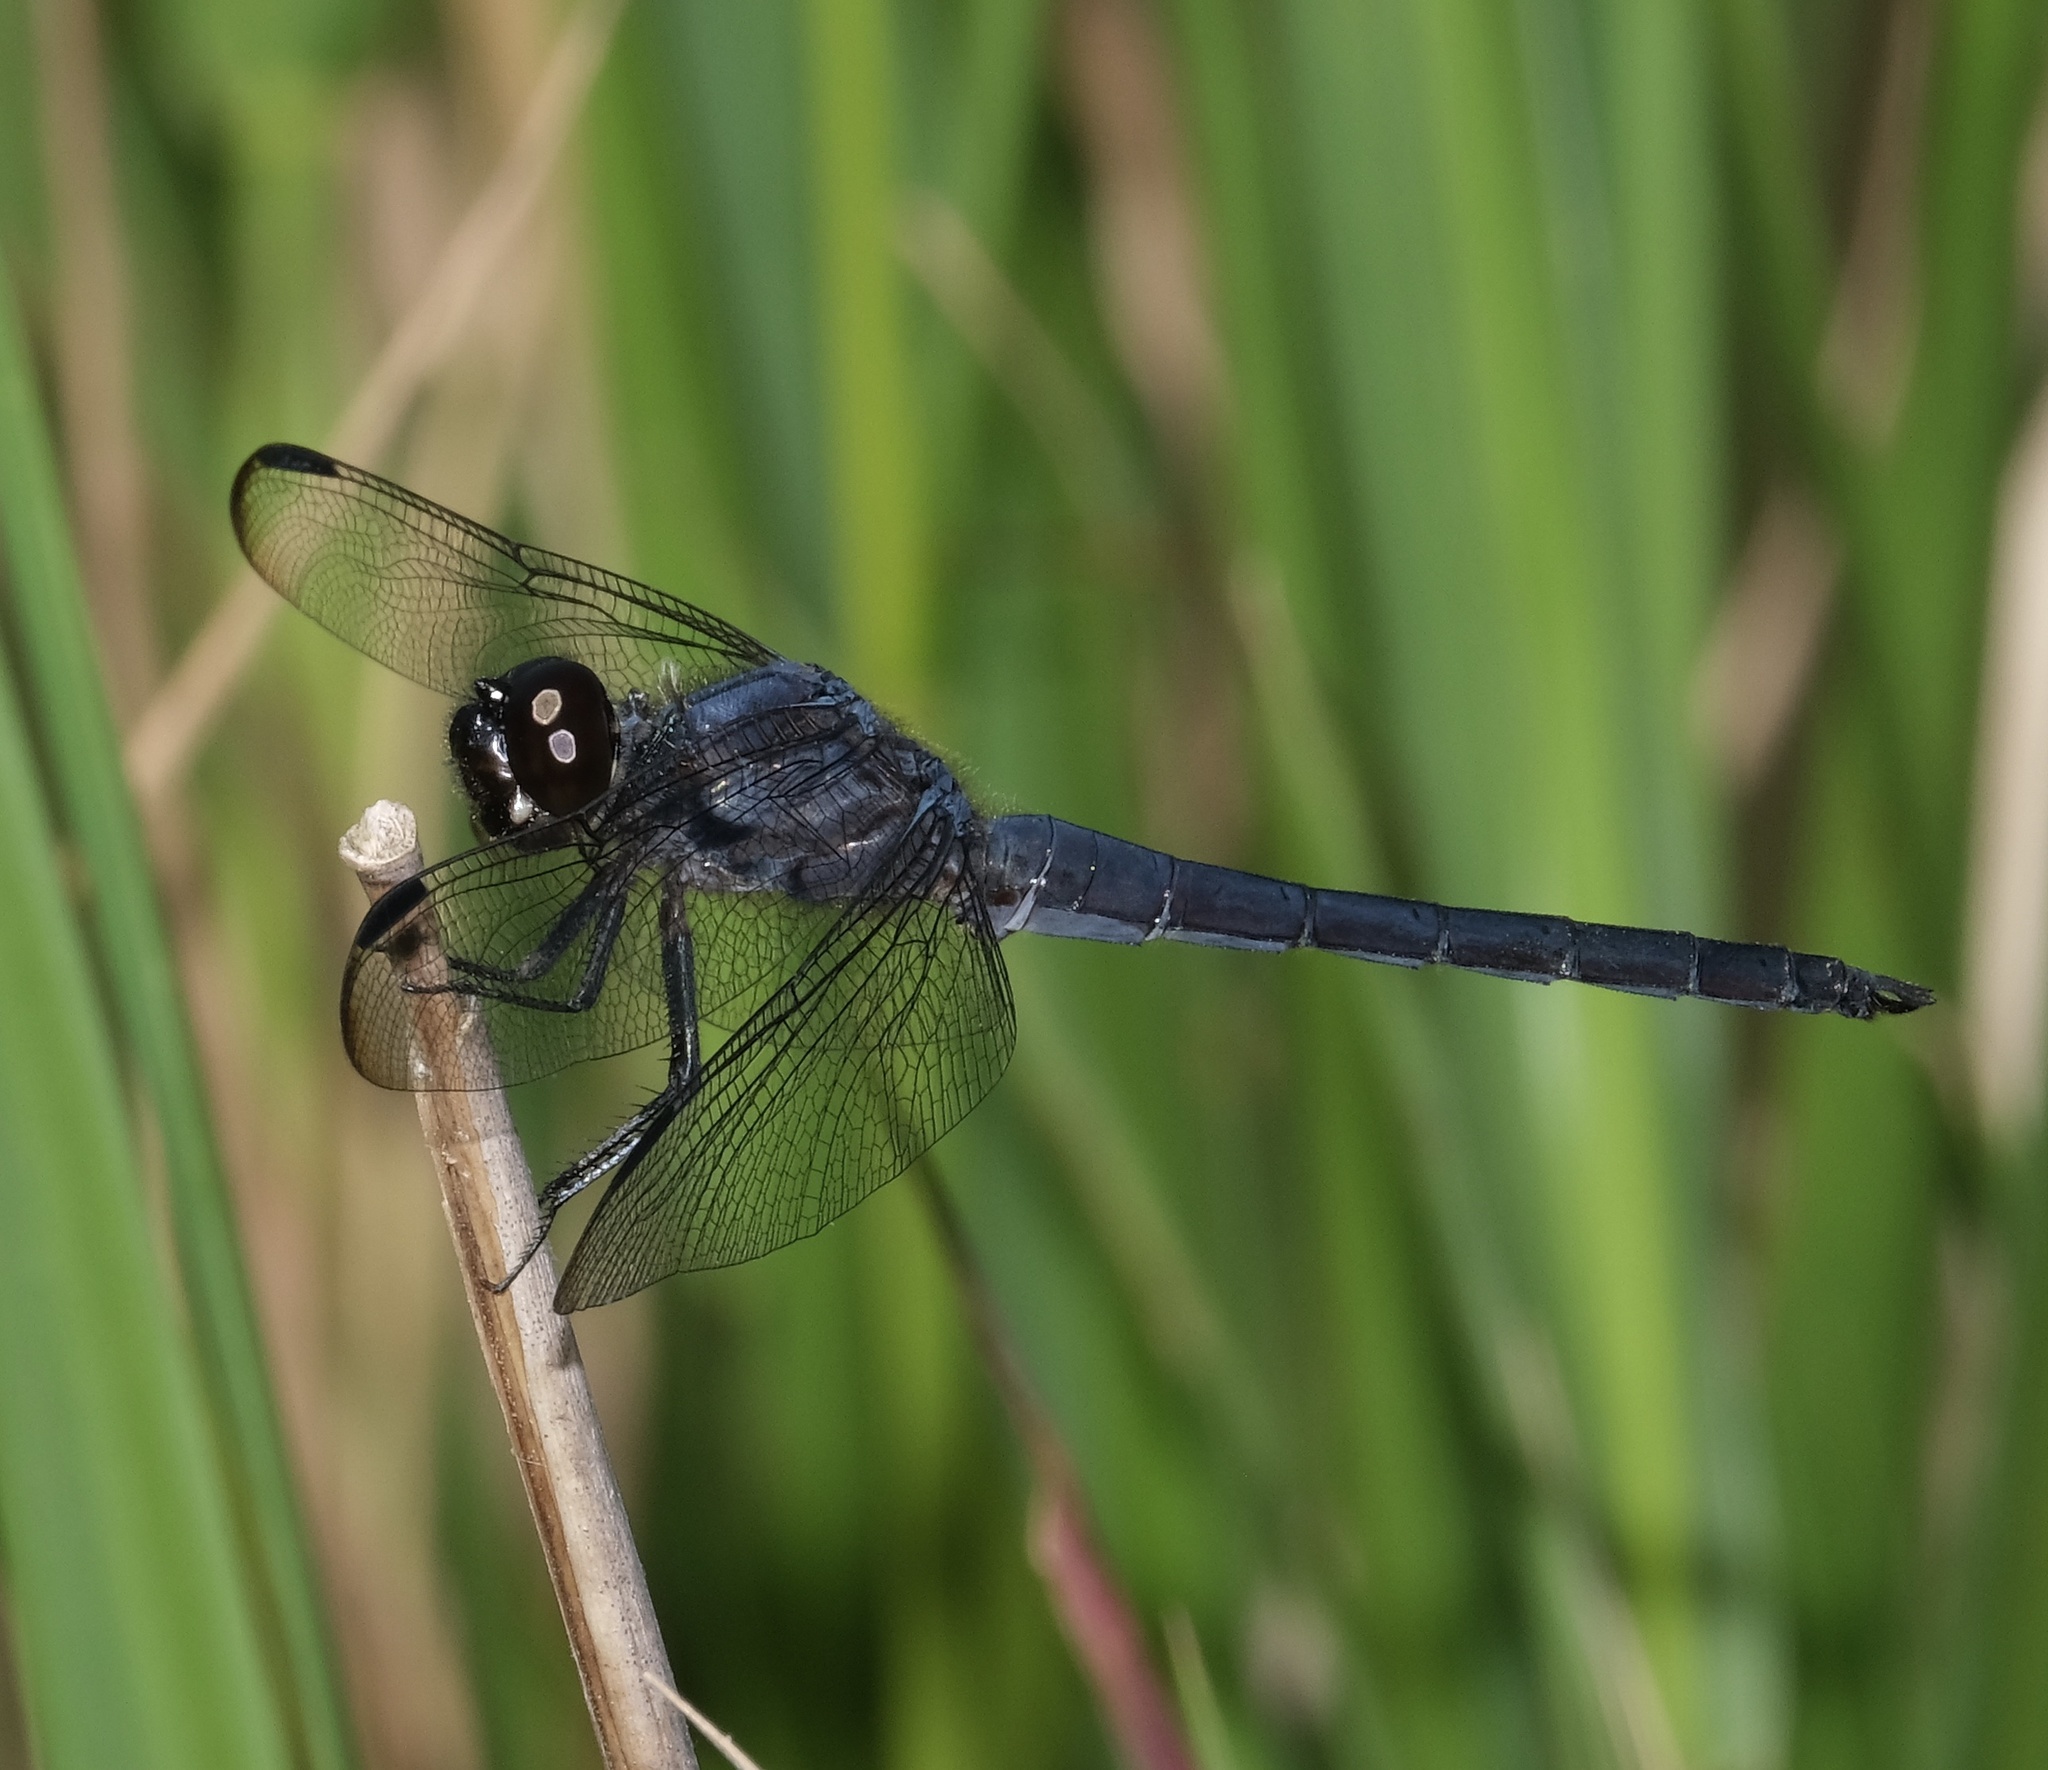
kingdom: Animalia
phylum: Arthropoda
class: Insecta
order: Odonata
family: Libellulidae
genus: Libellula
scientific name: Libellula incesta
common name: Slaty skimmer
